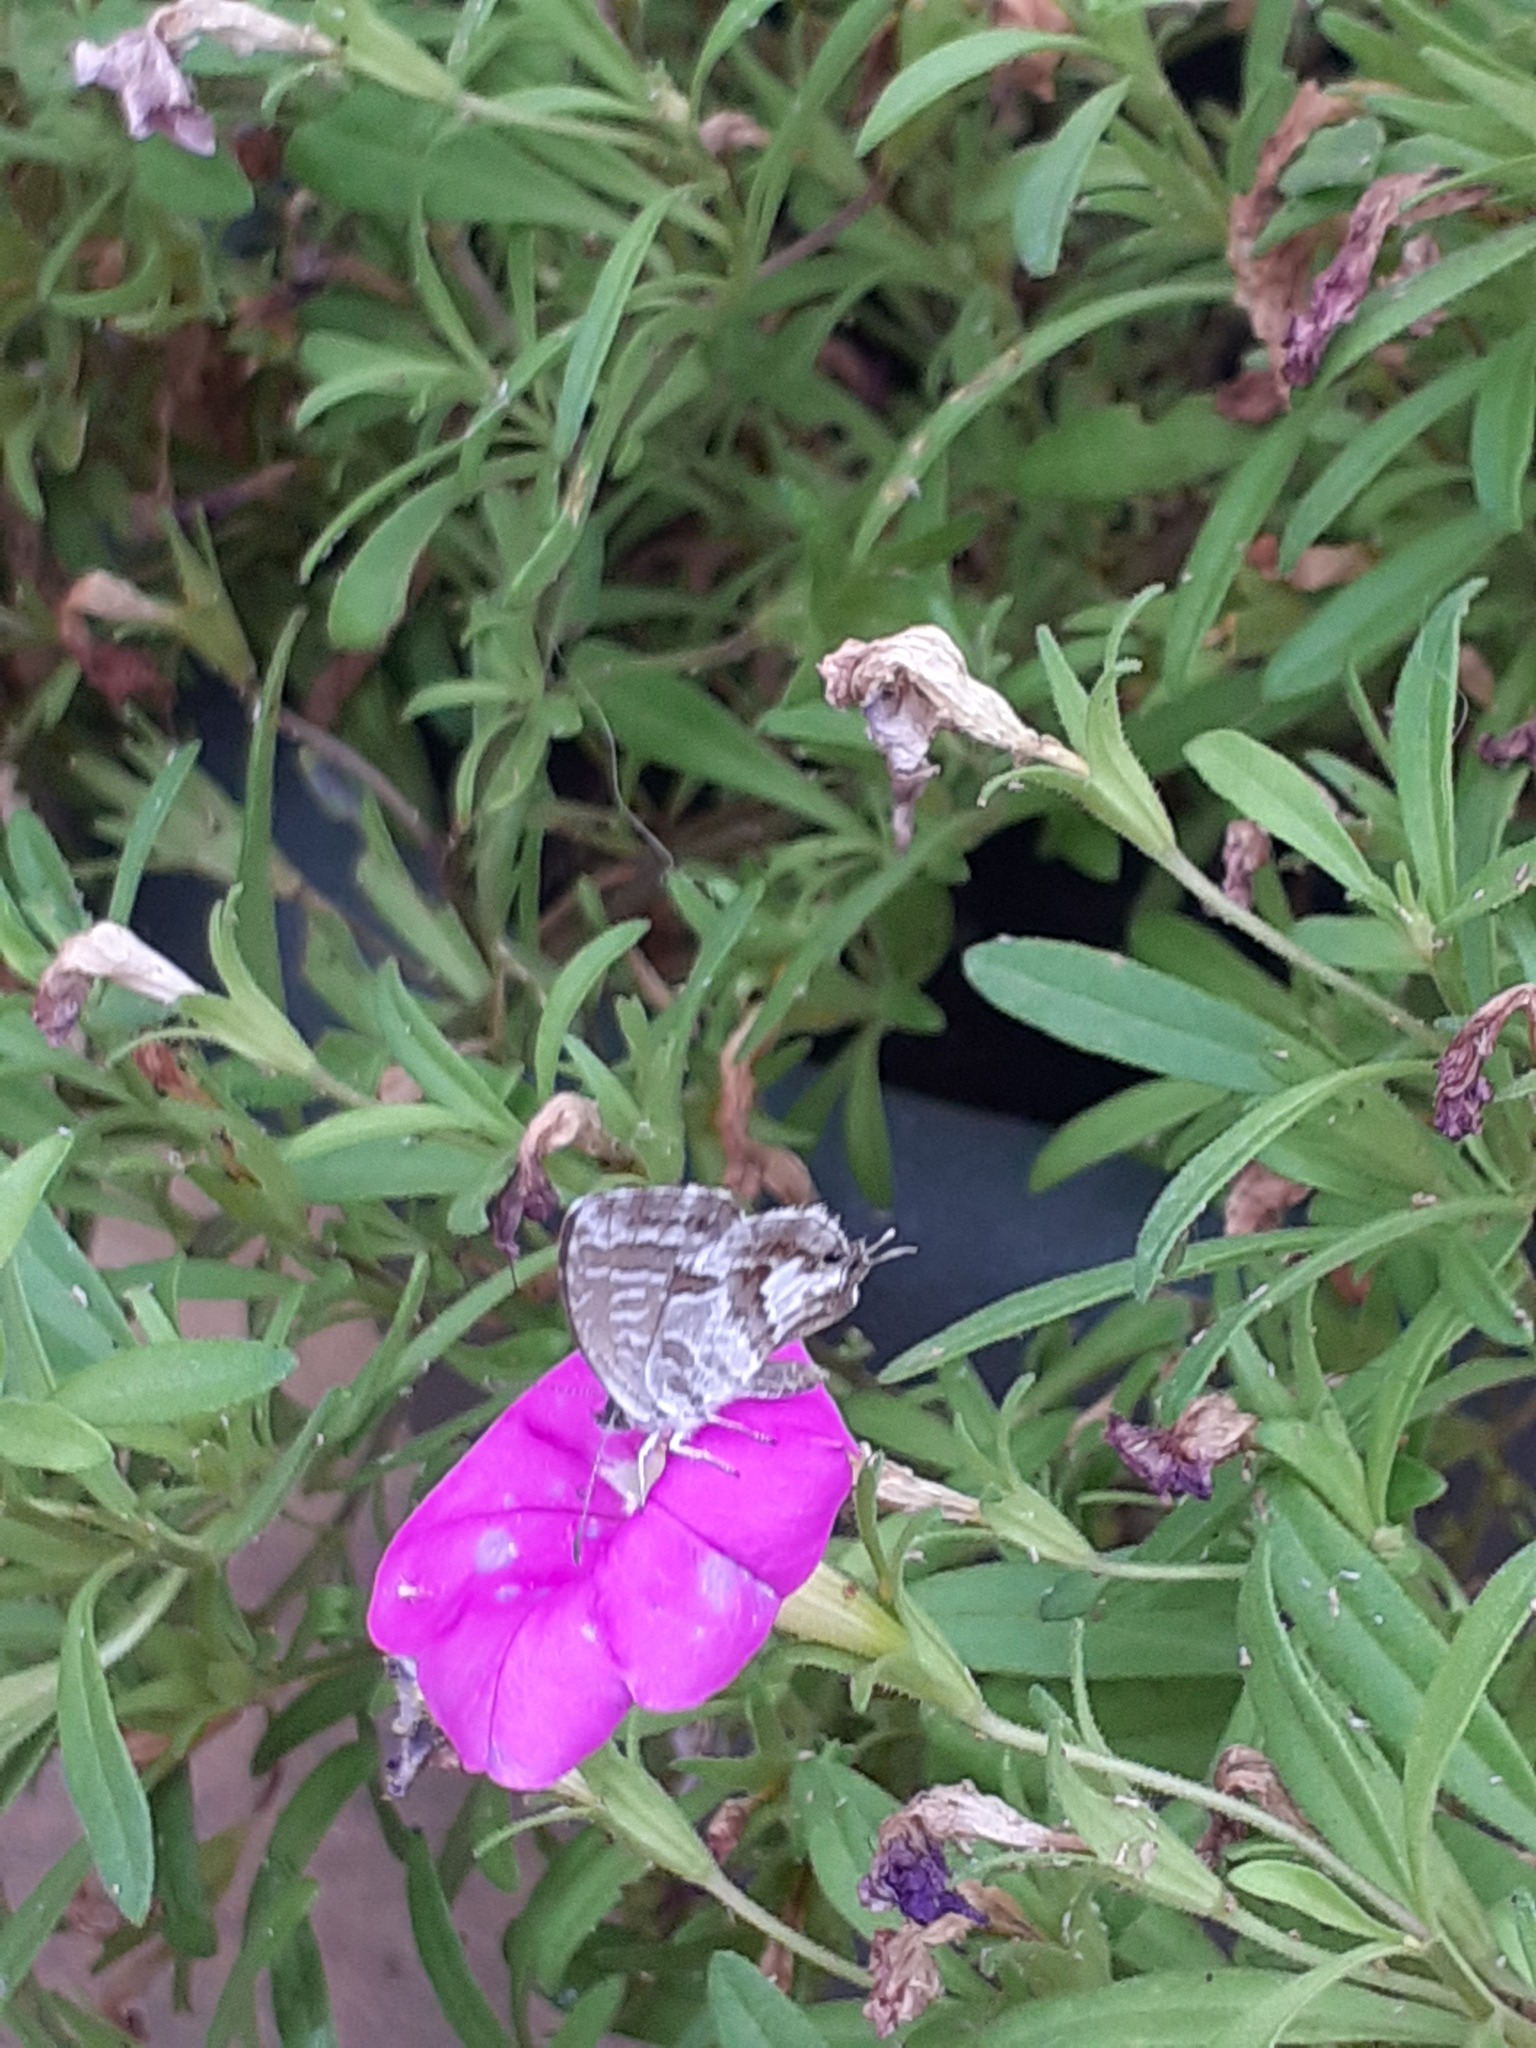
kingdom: Animalia
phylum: Arthropoda
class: Insecta
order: Lepidoptera
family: Lycaenidae
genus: Cacyreus
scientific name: Cacyreus marshalli
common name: Geranium bronze
